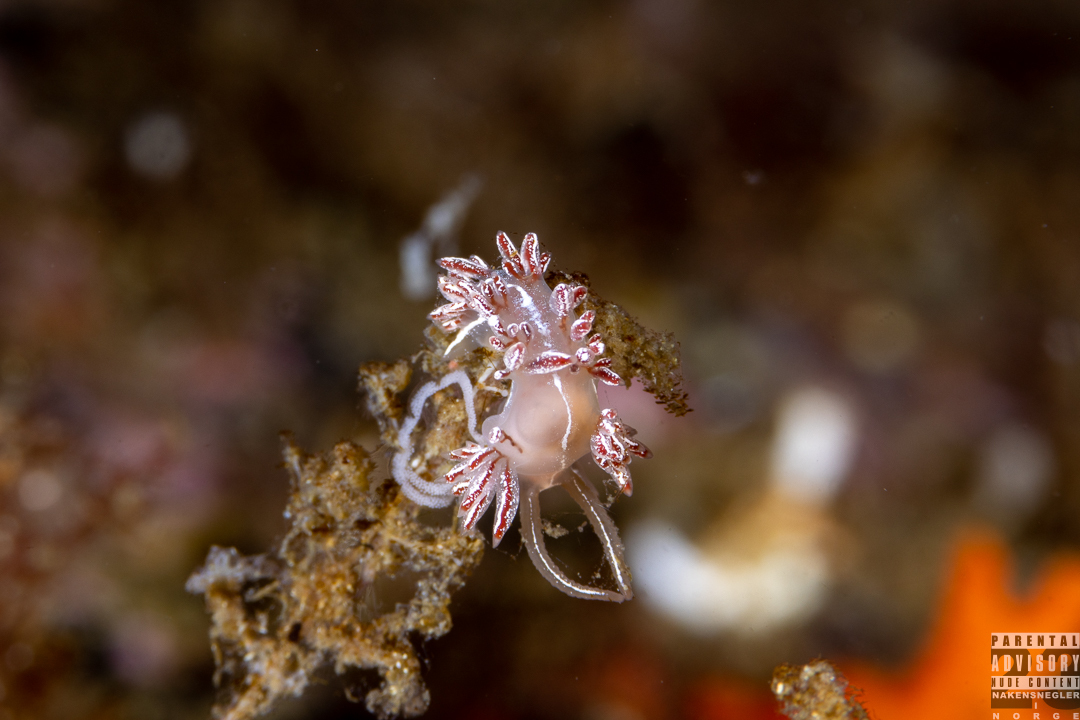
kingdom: Animalia
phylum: Mollusca
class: Gastropoda
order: Nudibranchia
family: Coryphellidae
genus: Coryphella
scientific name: Coryphella chriskaugei
